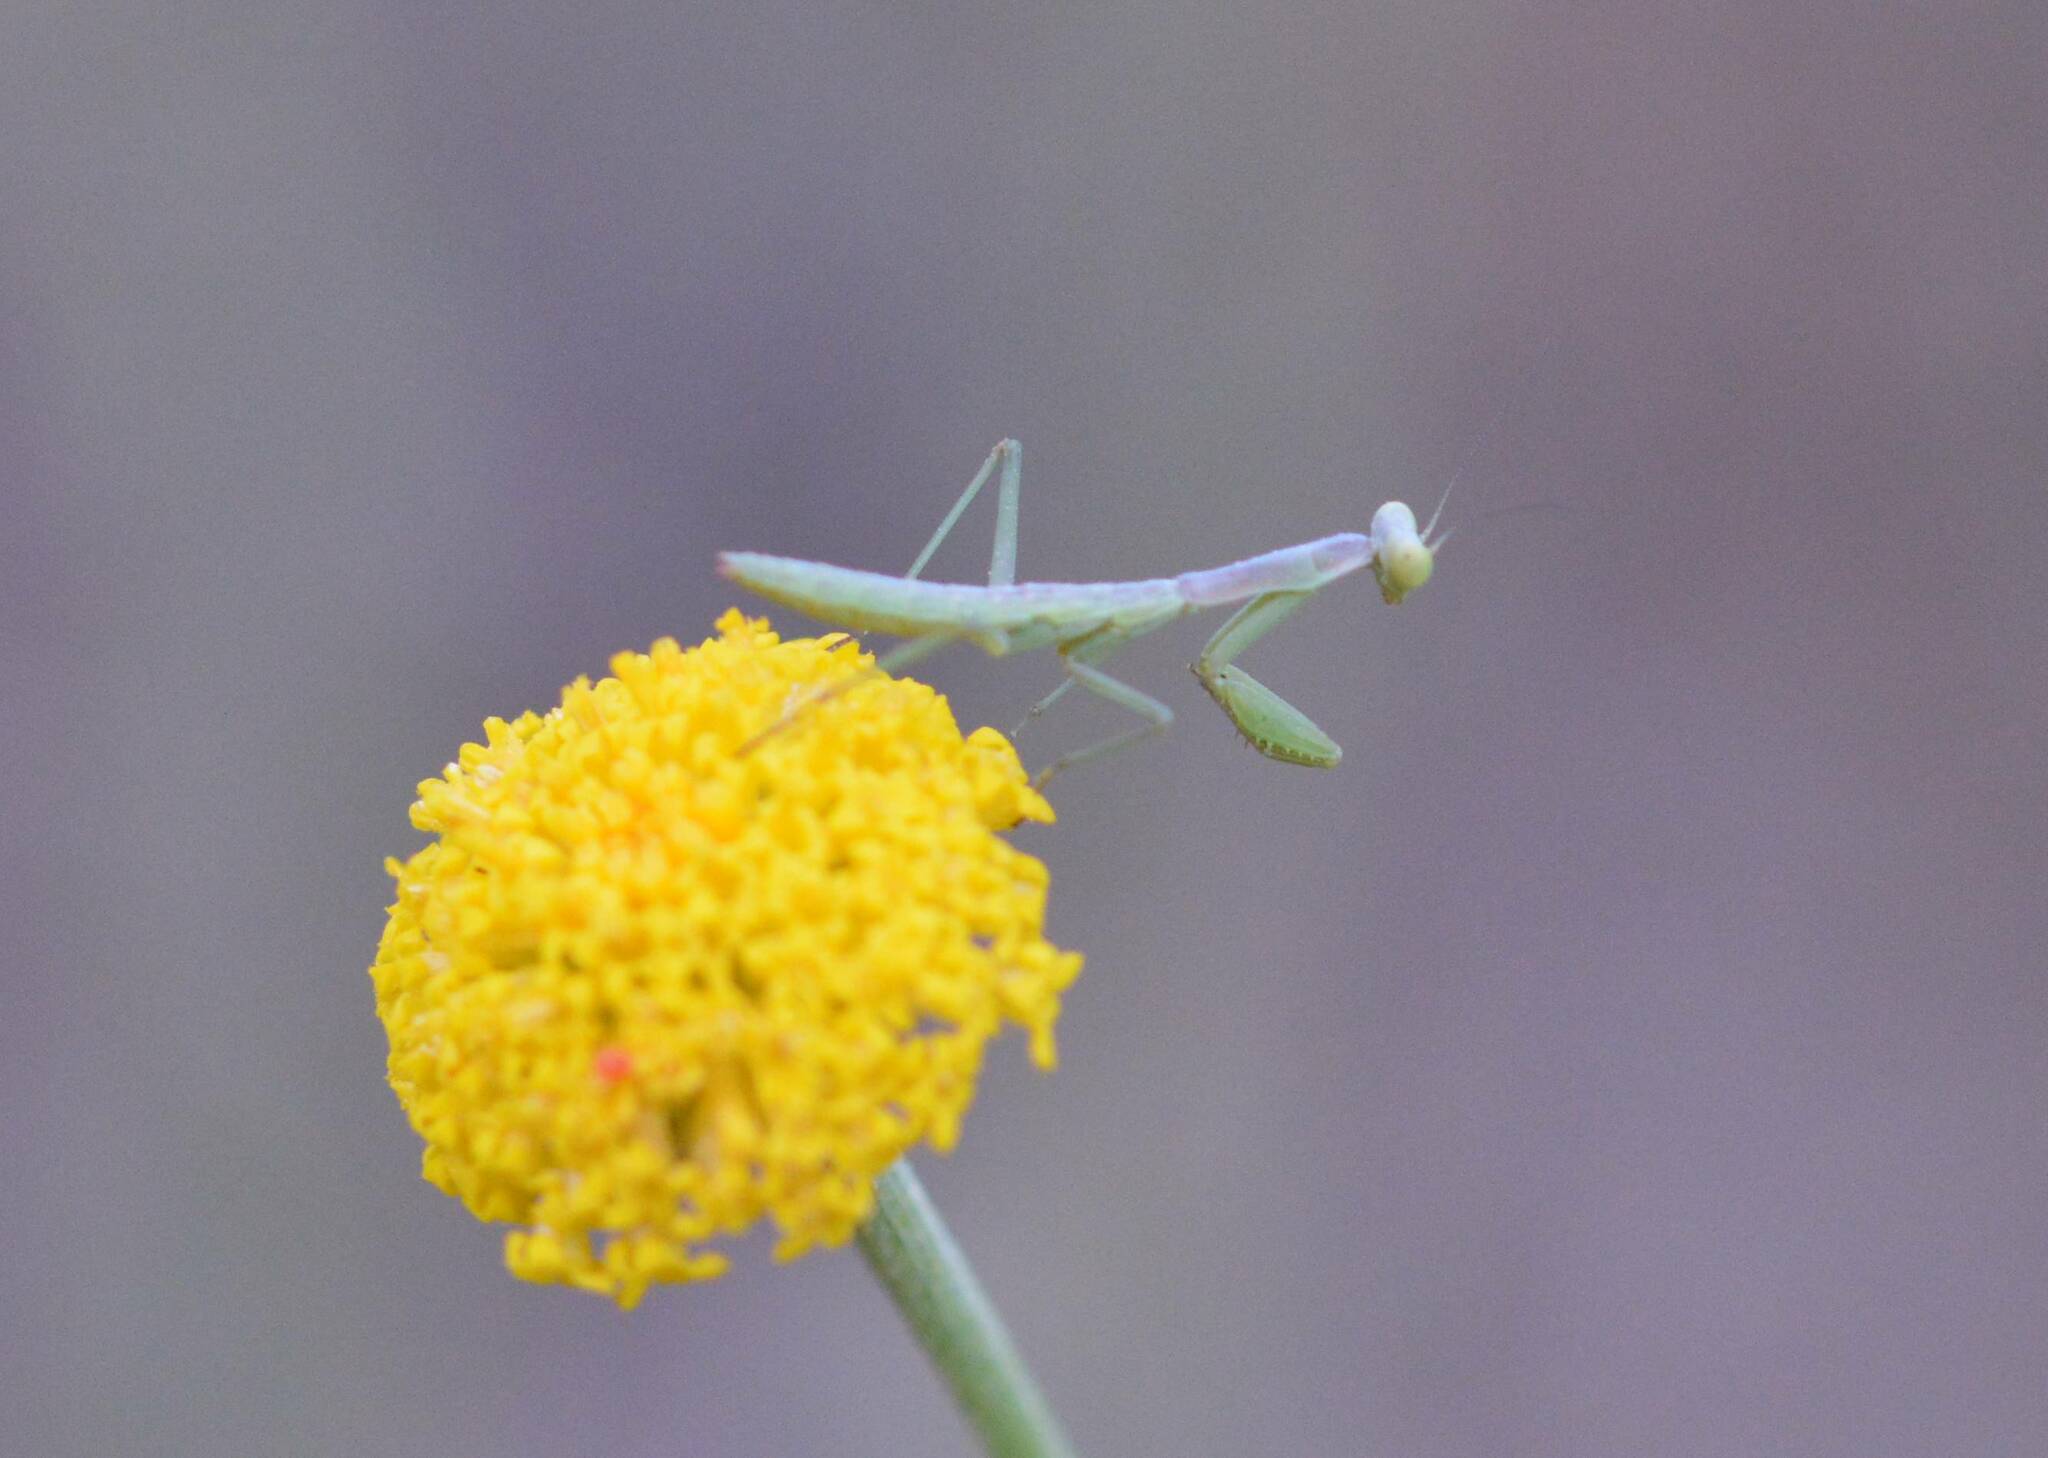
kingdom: Animalia
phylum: Arthropoda
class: Insecta
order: Mantodea
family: Eremiaphilidae
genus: Iris
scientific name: Iris oratoria
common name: Mediterranean mantis
